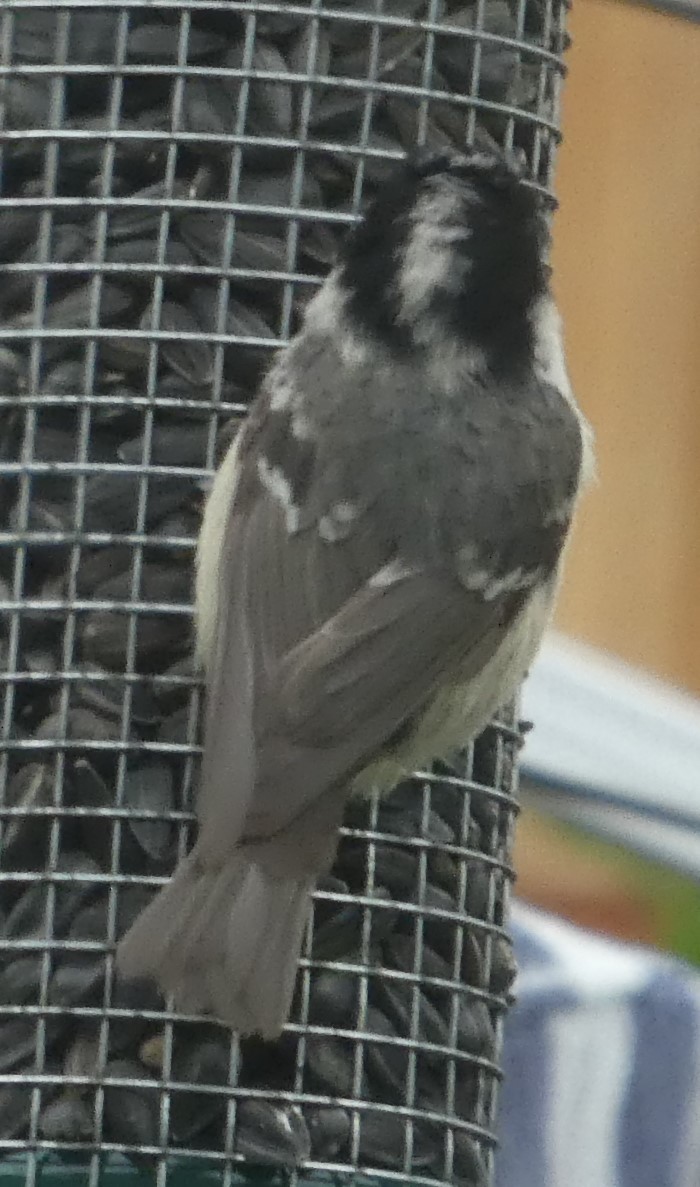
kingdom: Animalia
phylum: Chordata
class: Aves
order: Passeriformes
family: Paridae
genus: Periparus
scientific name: Periparus ater
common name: Coal tit
